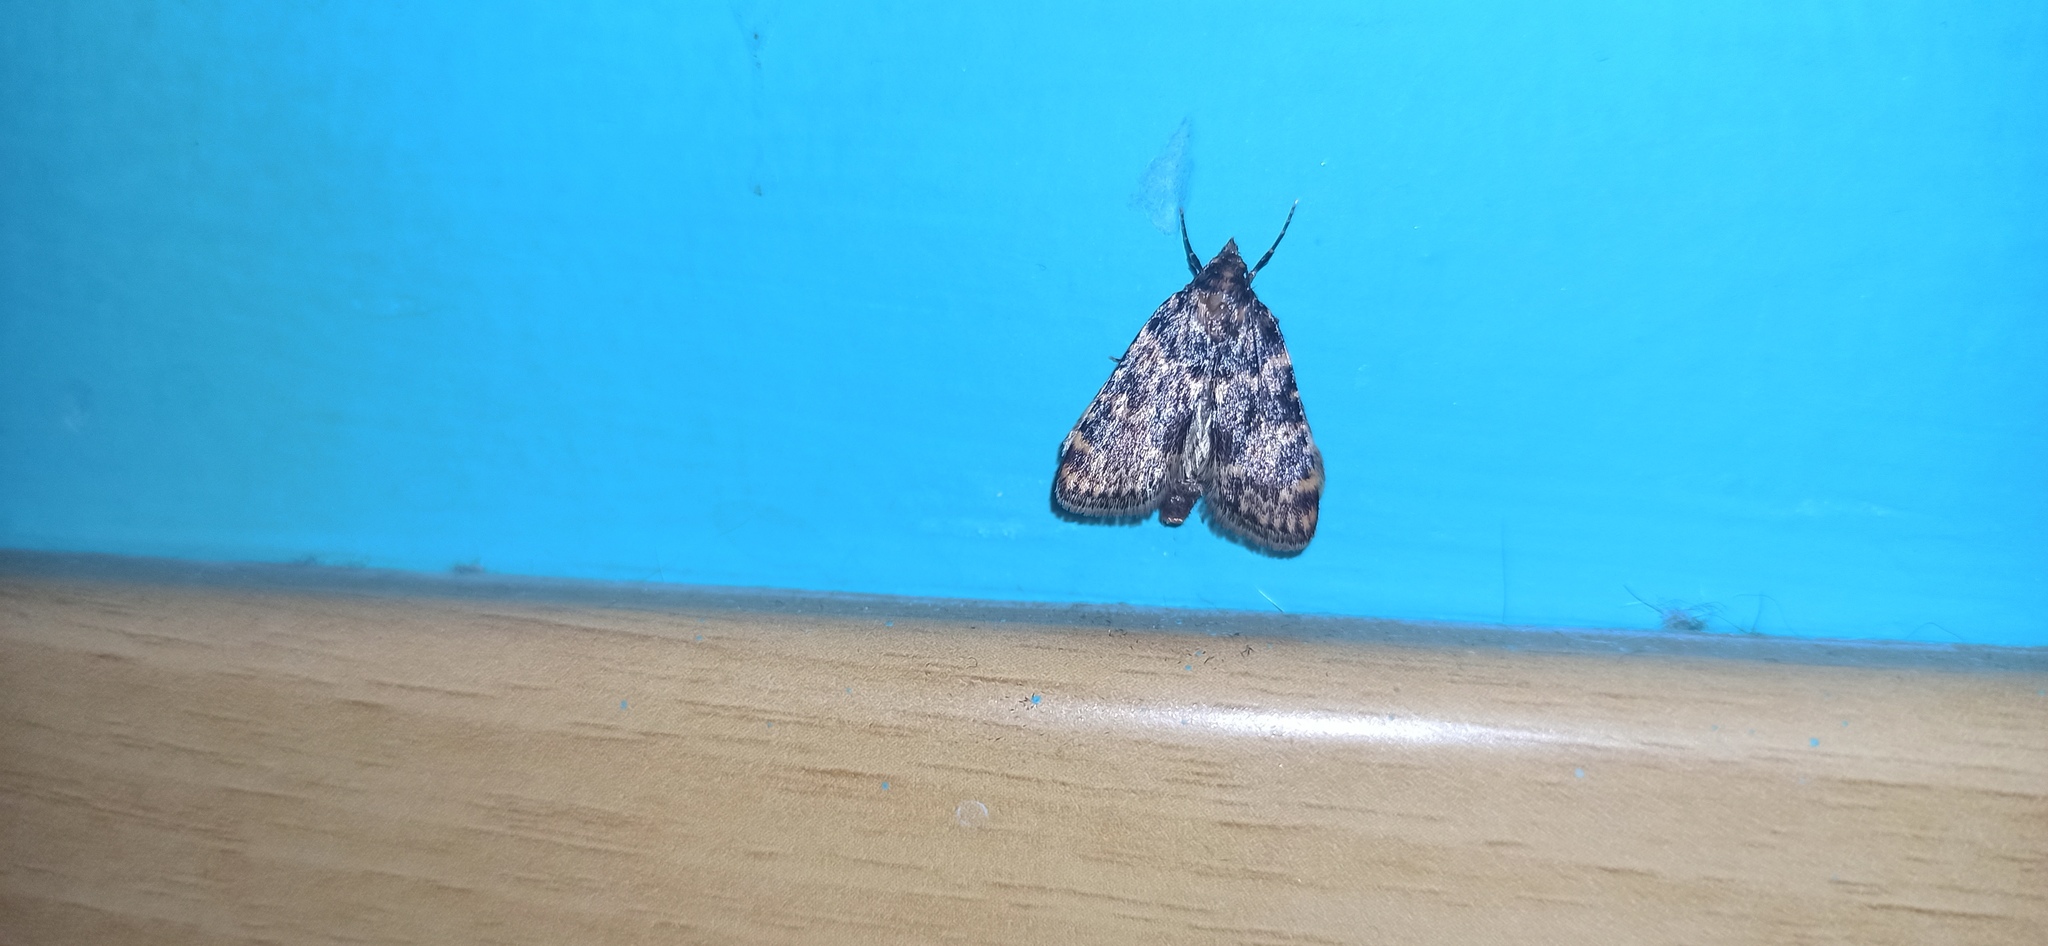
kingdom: Animalia
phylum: Arthropoda
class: Insecta
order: Lepidoptera
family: Pyralidae
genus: Aglossa
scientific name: Aglossa caprealis
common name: Small tabby
